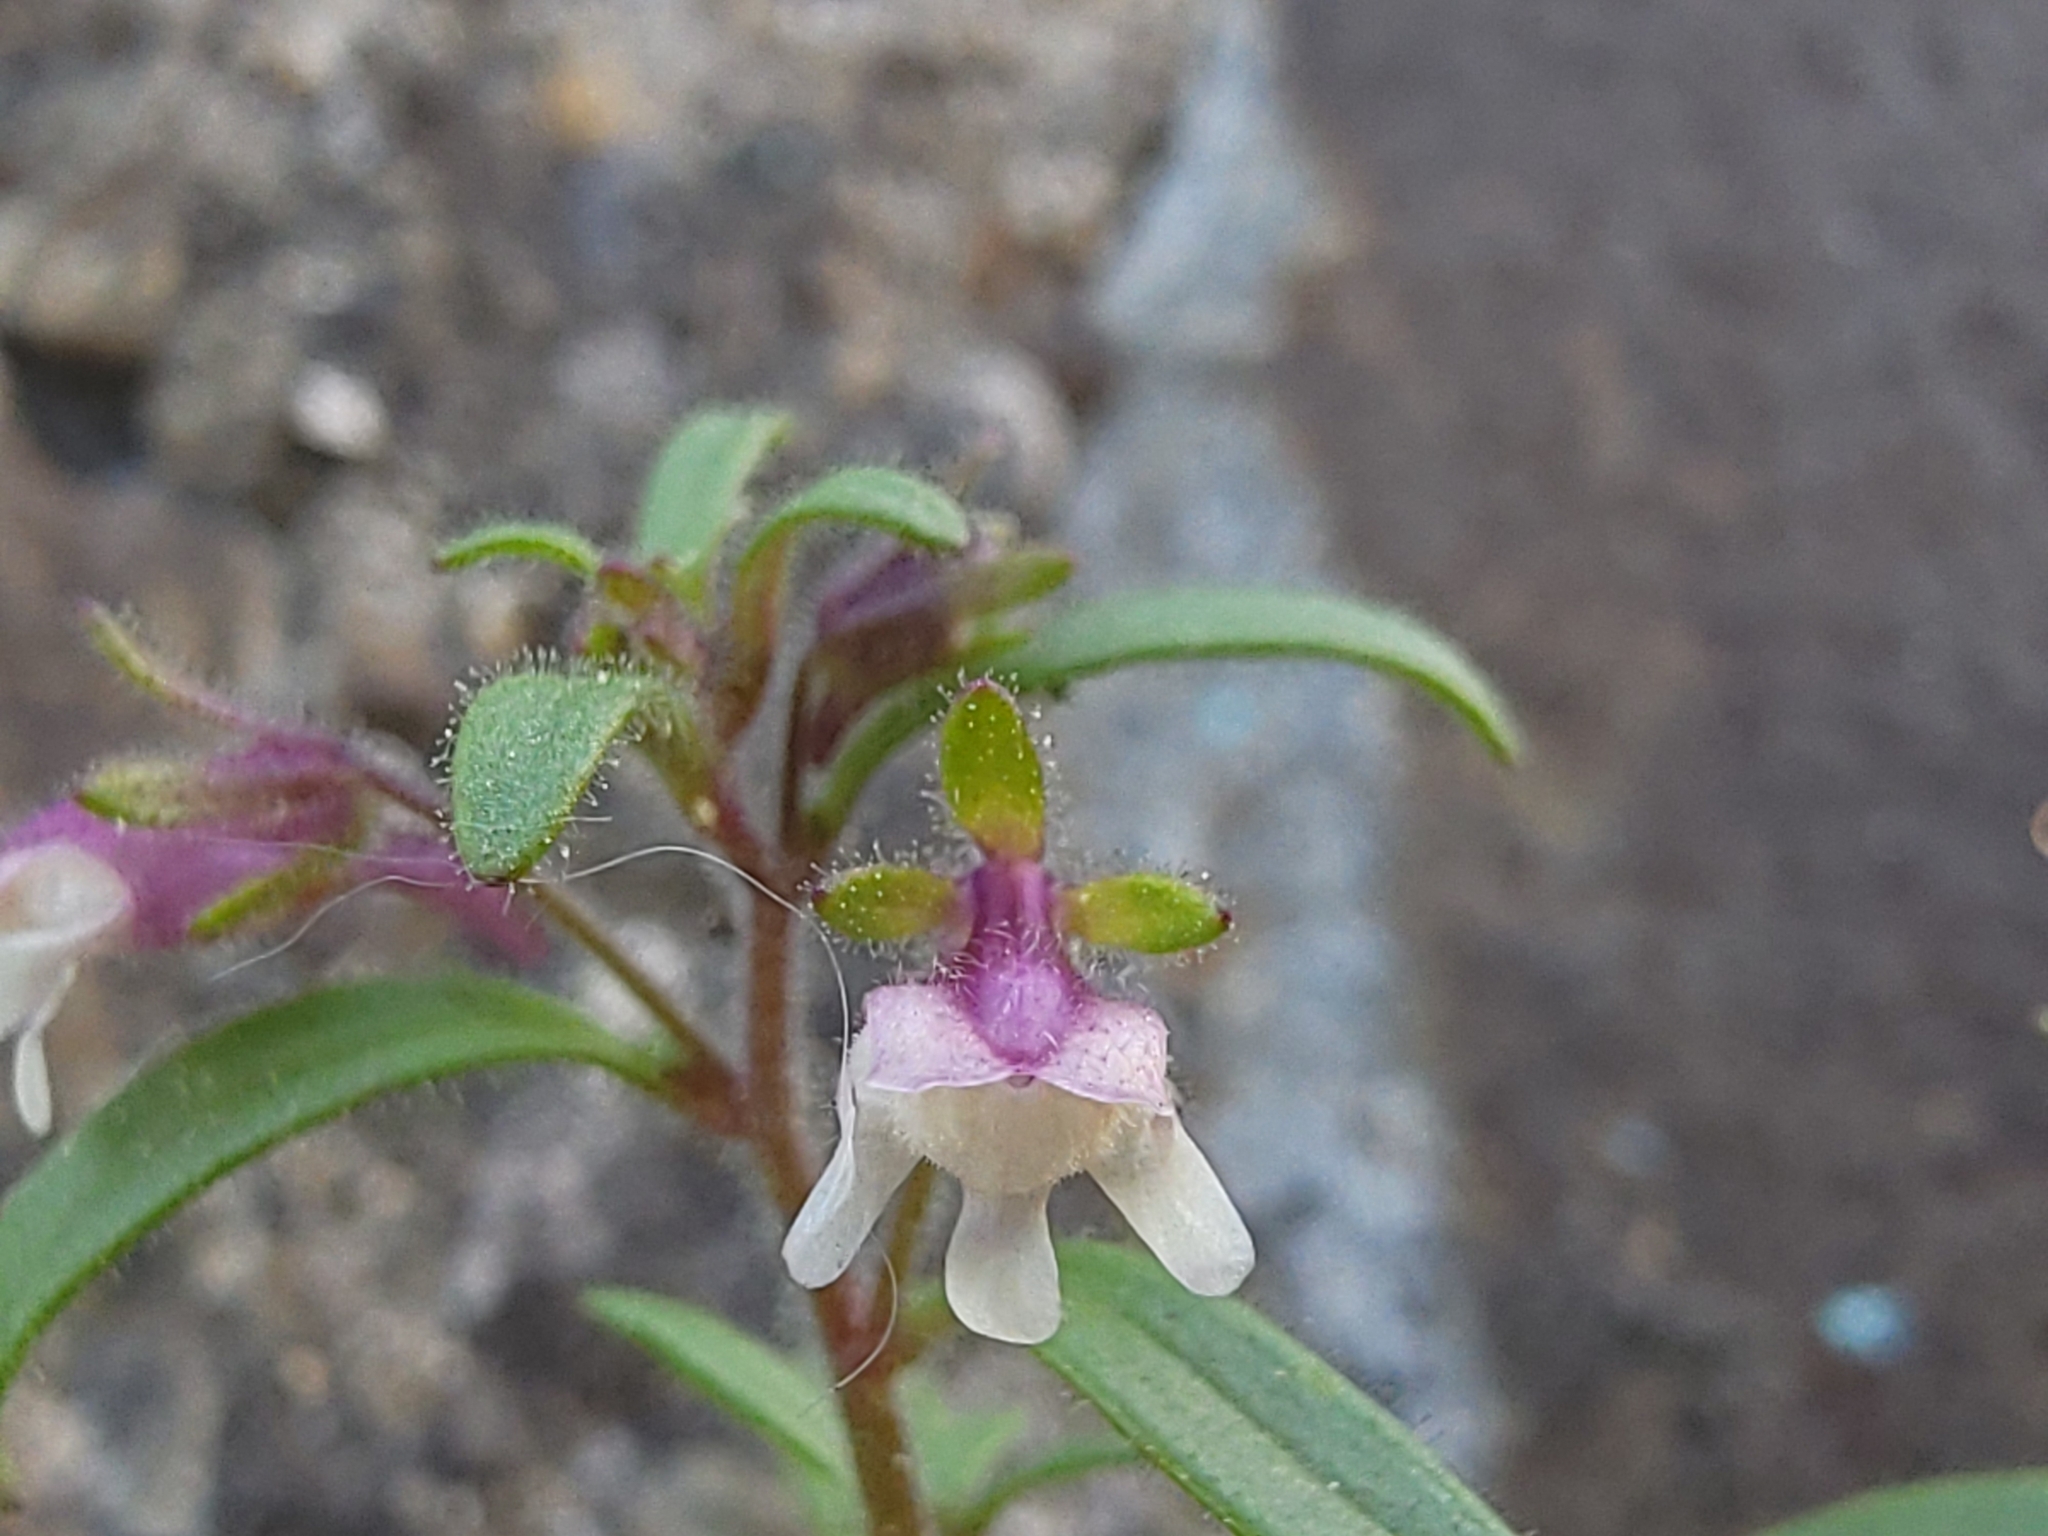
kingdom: Plantae
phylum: Tracheophyta
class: Magnoliopsida
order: Lamiales
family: Plantaginaceae
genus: Chaenorhinum
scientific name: Chaenorhinum minus
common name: Dwarf snapdragon
